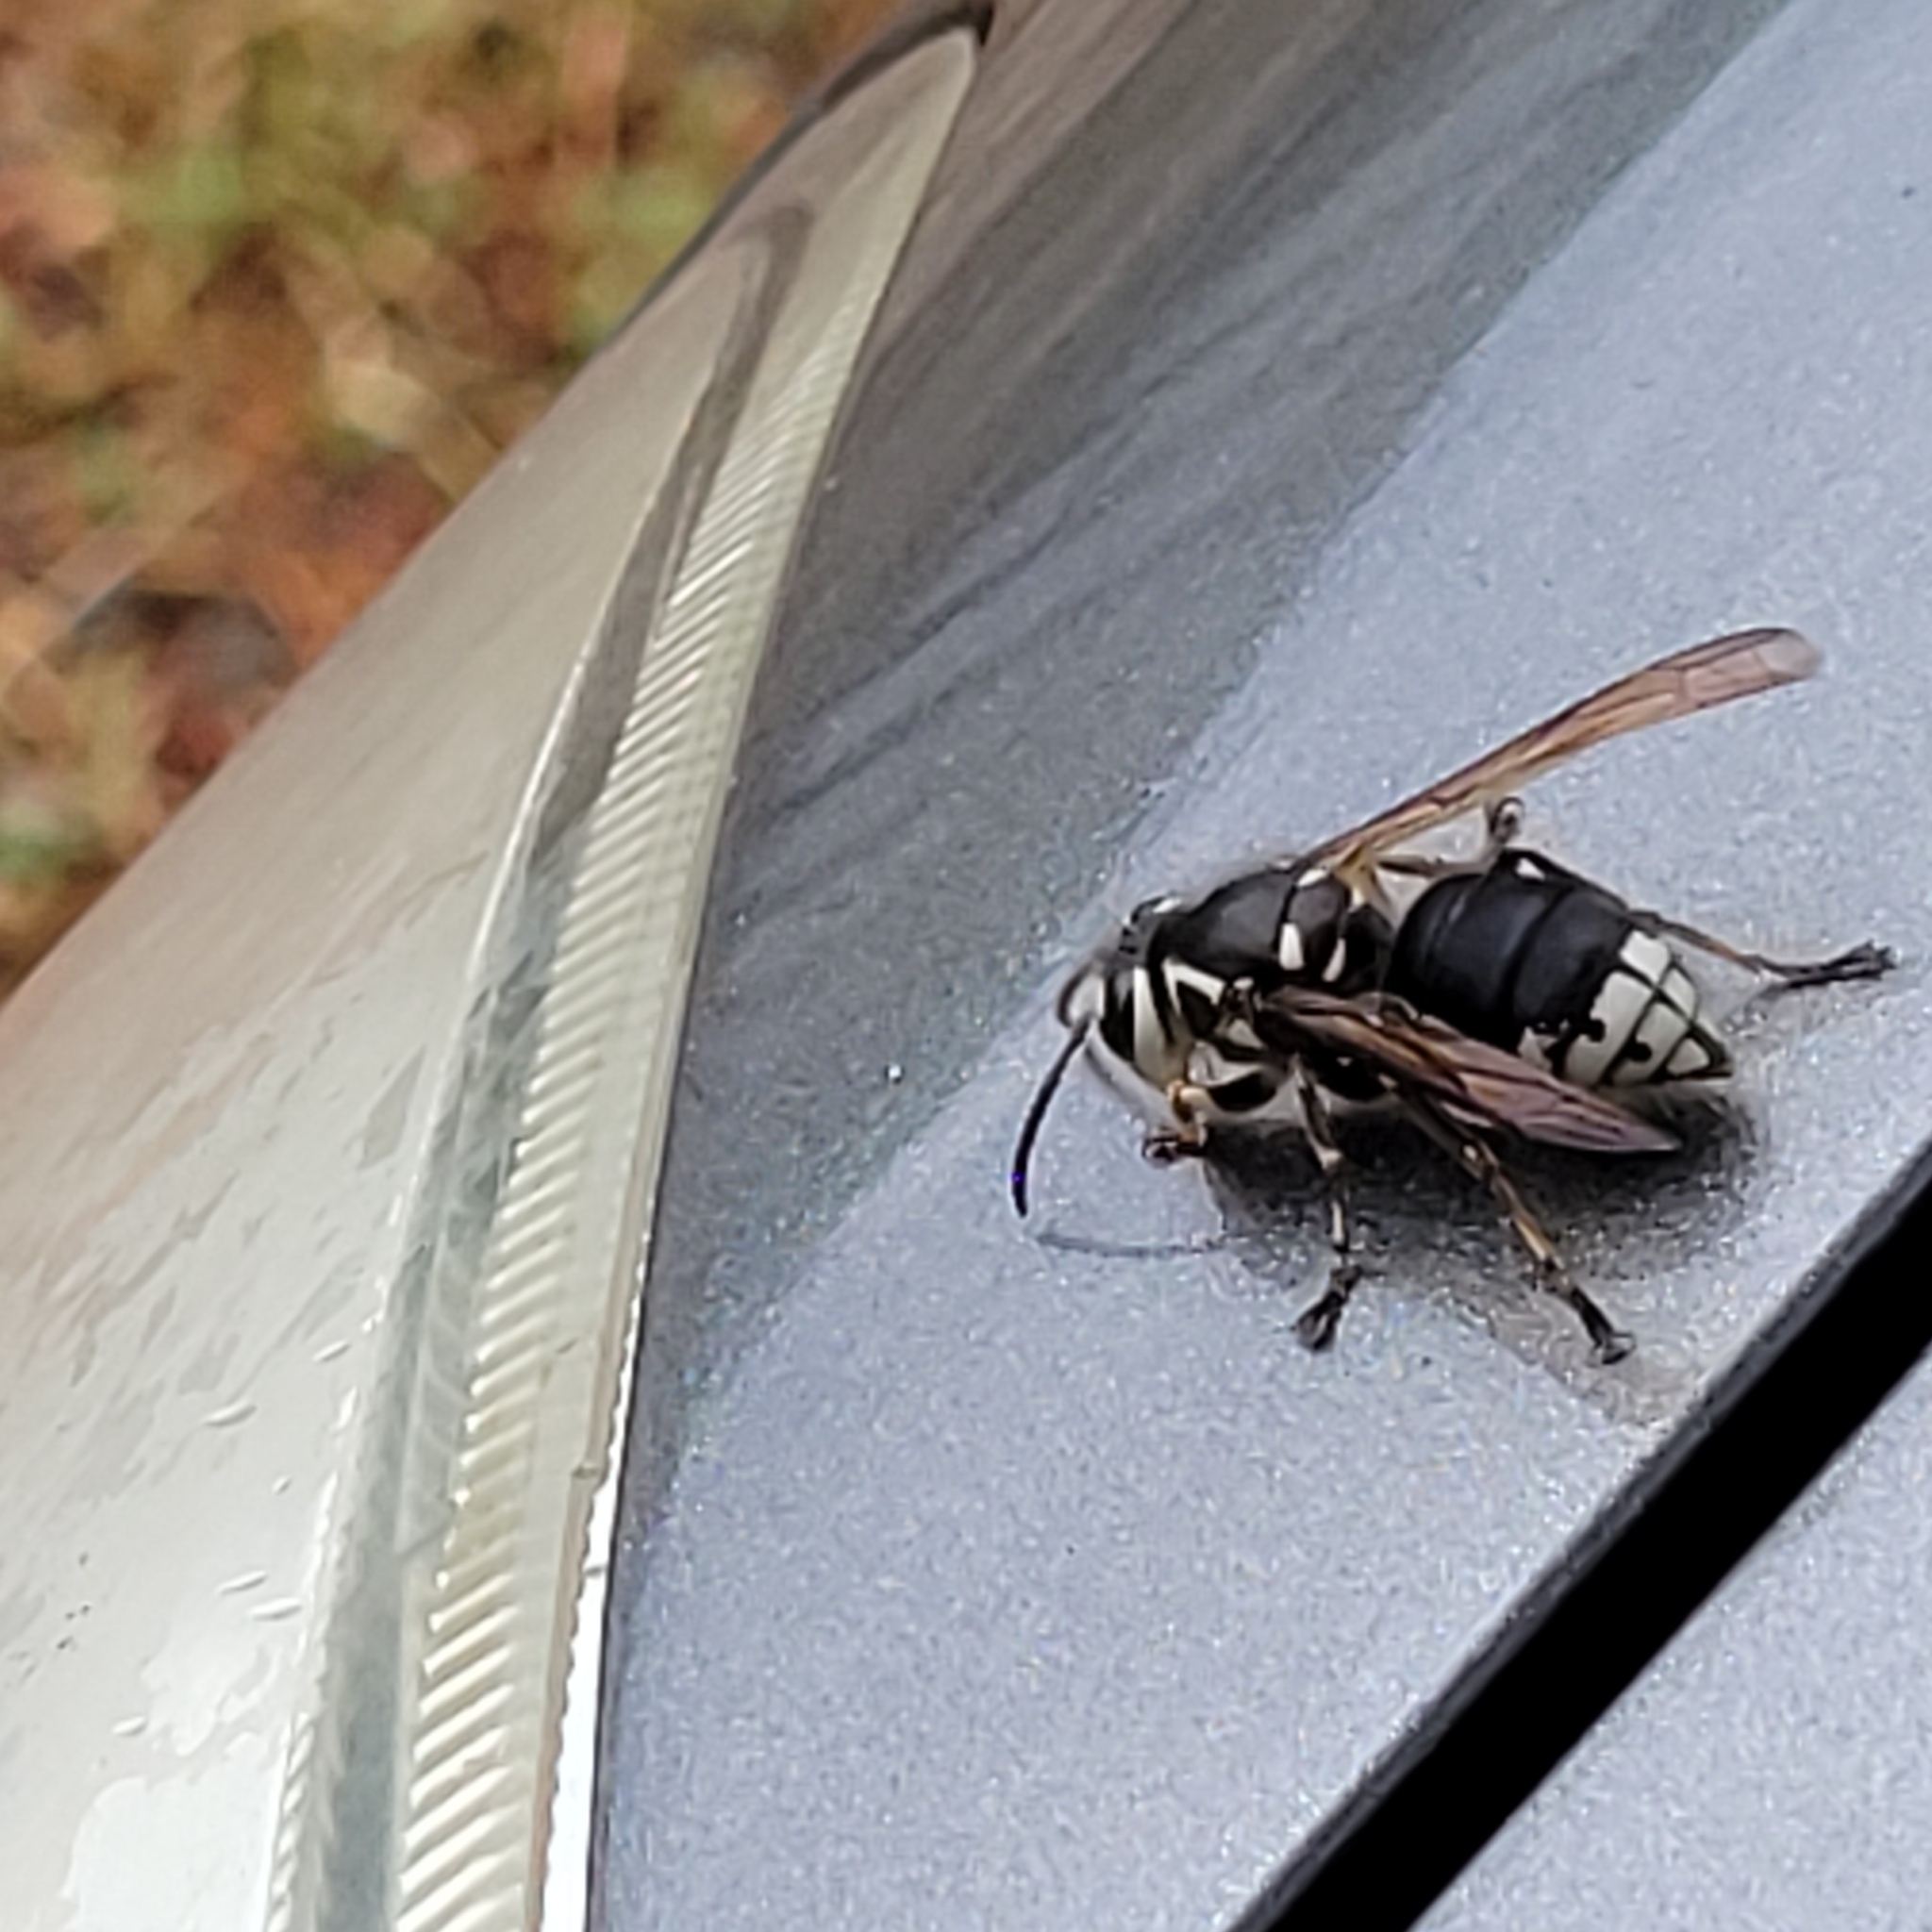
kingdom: Animalia
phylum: Arthropoda
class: Insecta
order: Hymenoptera
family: Vespidae
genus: Dolichovespula
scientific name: Dolichovespula maculata
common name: Bald-faced hornet
